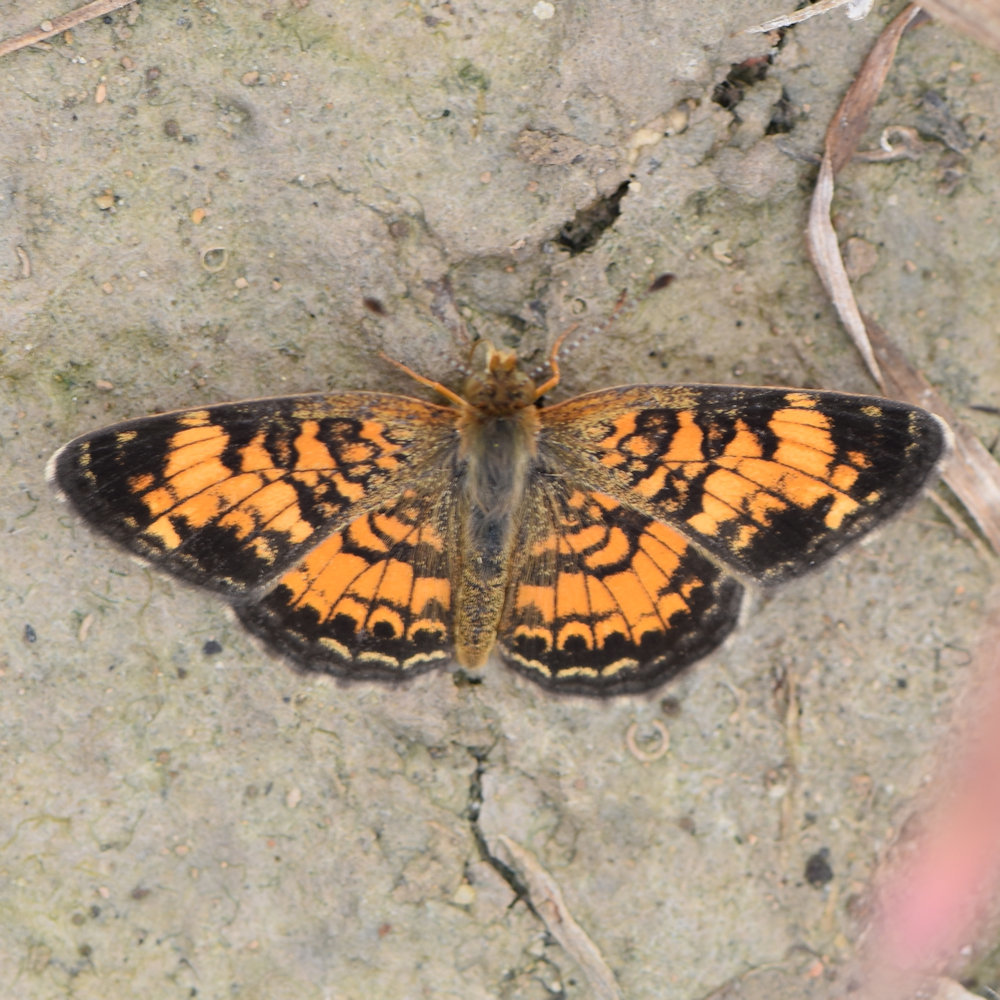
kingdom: Animalia
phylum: Arthropoda
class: Insecta
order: Lepidoptera
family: Nymphalidae
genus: Phyciodes
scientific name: Phyciodes tharos
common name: Pearl crescent
